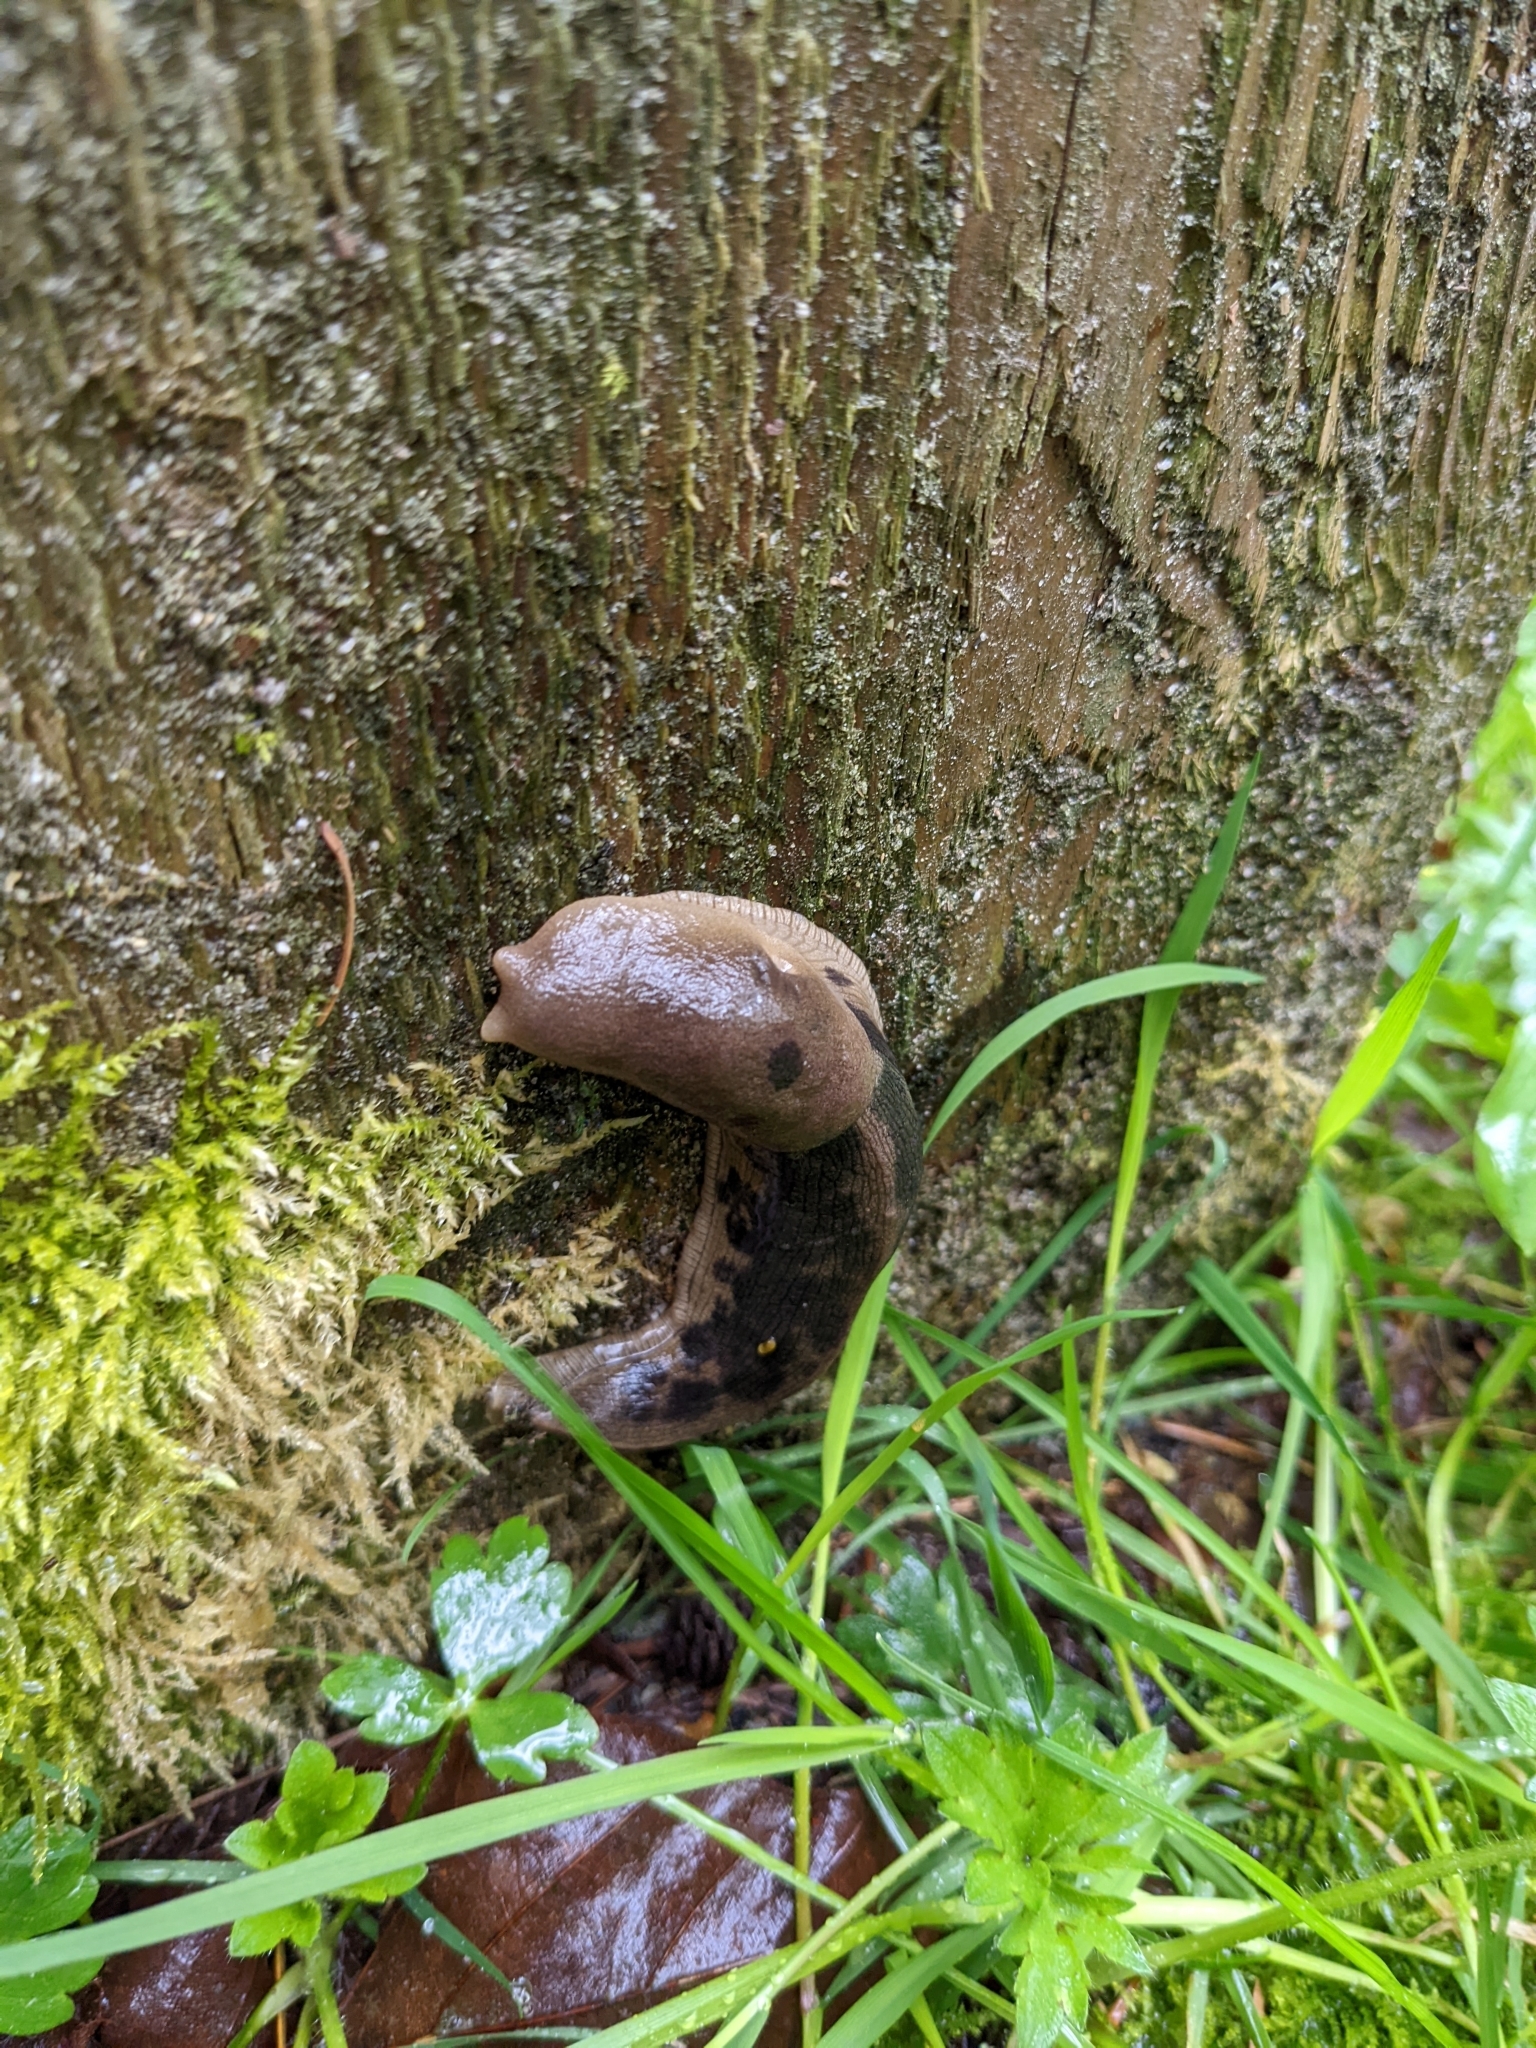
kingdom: Animalia
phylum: Mollusca
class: Gastropoda
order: Stylommatophora
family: Ariolimacidae
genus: Ariolimax
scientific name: Ariolimax columbianus
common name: Pacific banana slug
